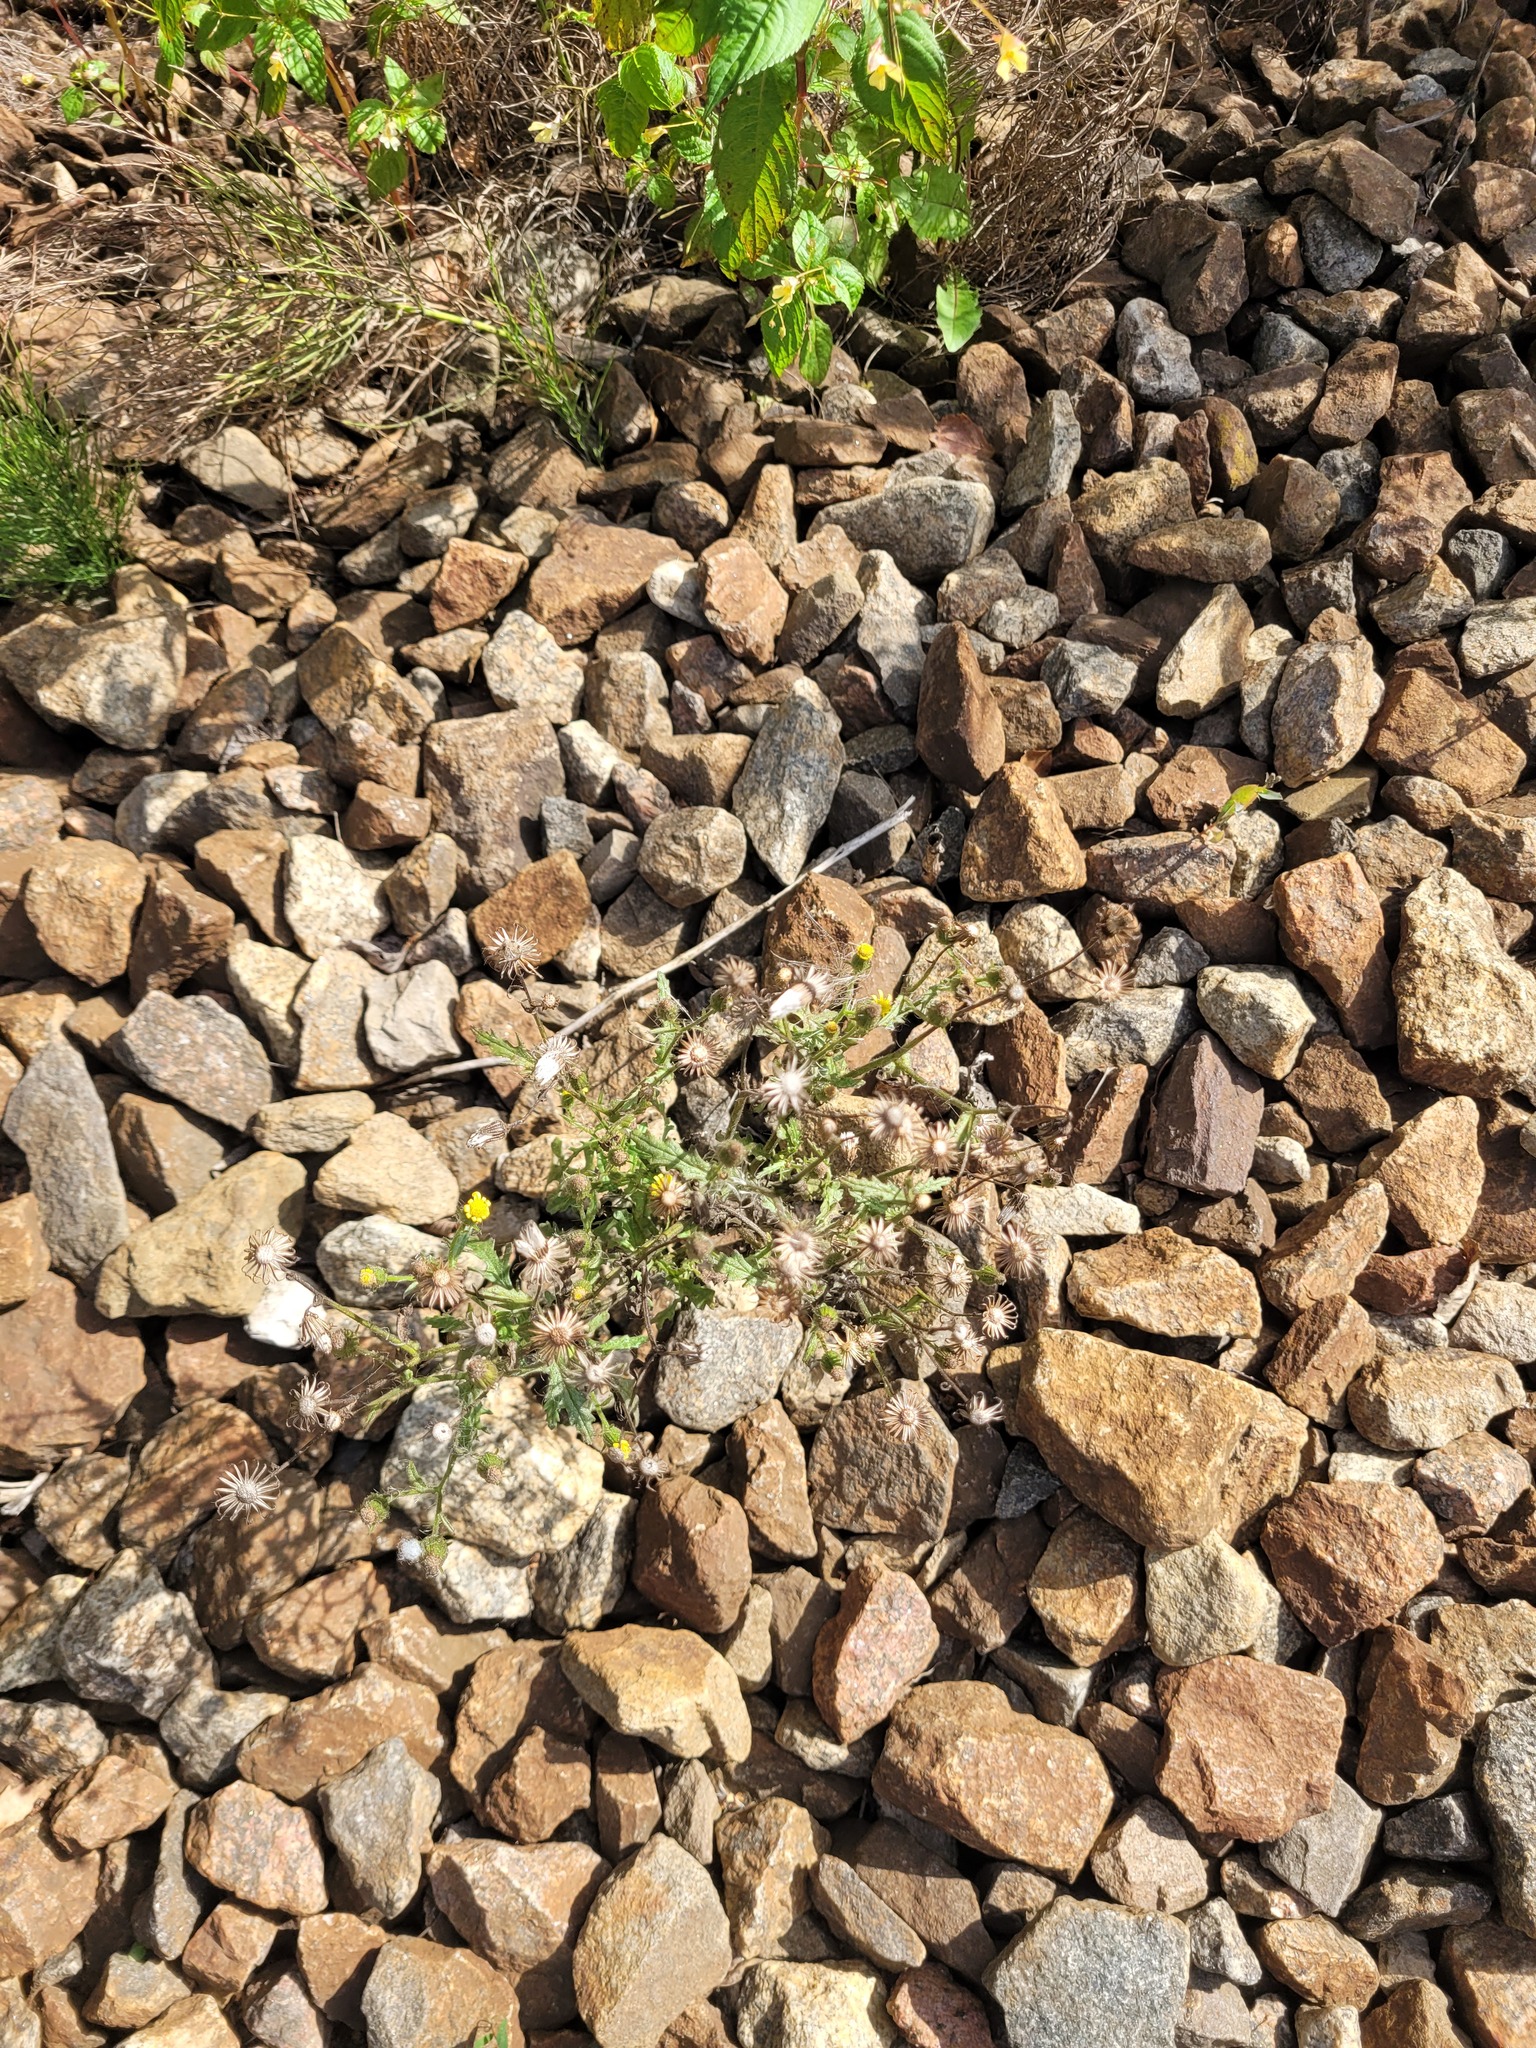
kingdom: Plantae
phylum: Tracheophyta
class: Magnoliopsida
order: Asterales
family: Asteraceae
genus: Senecio
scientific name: Senecio viscosus
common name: Sticky groundsel
